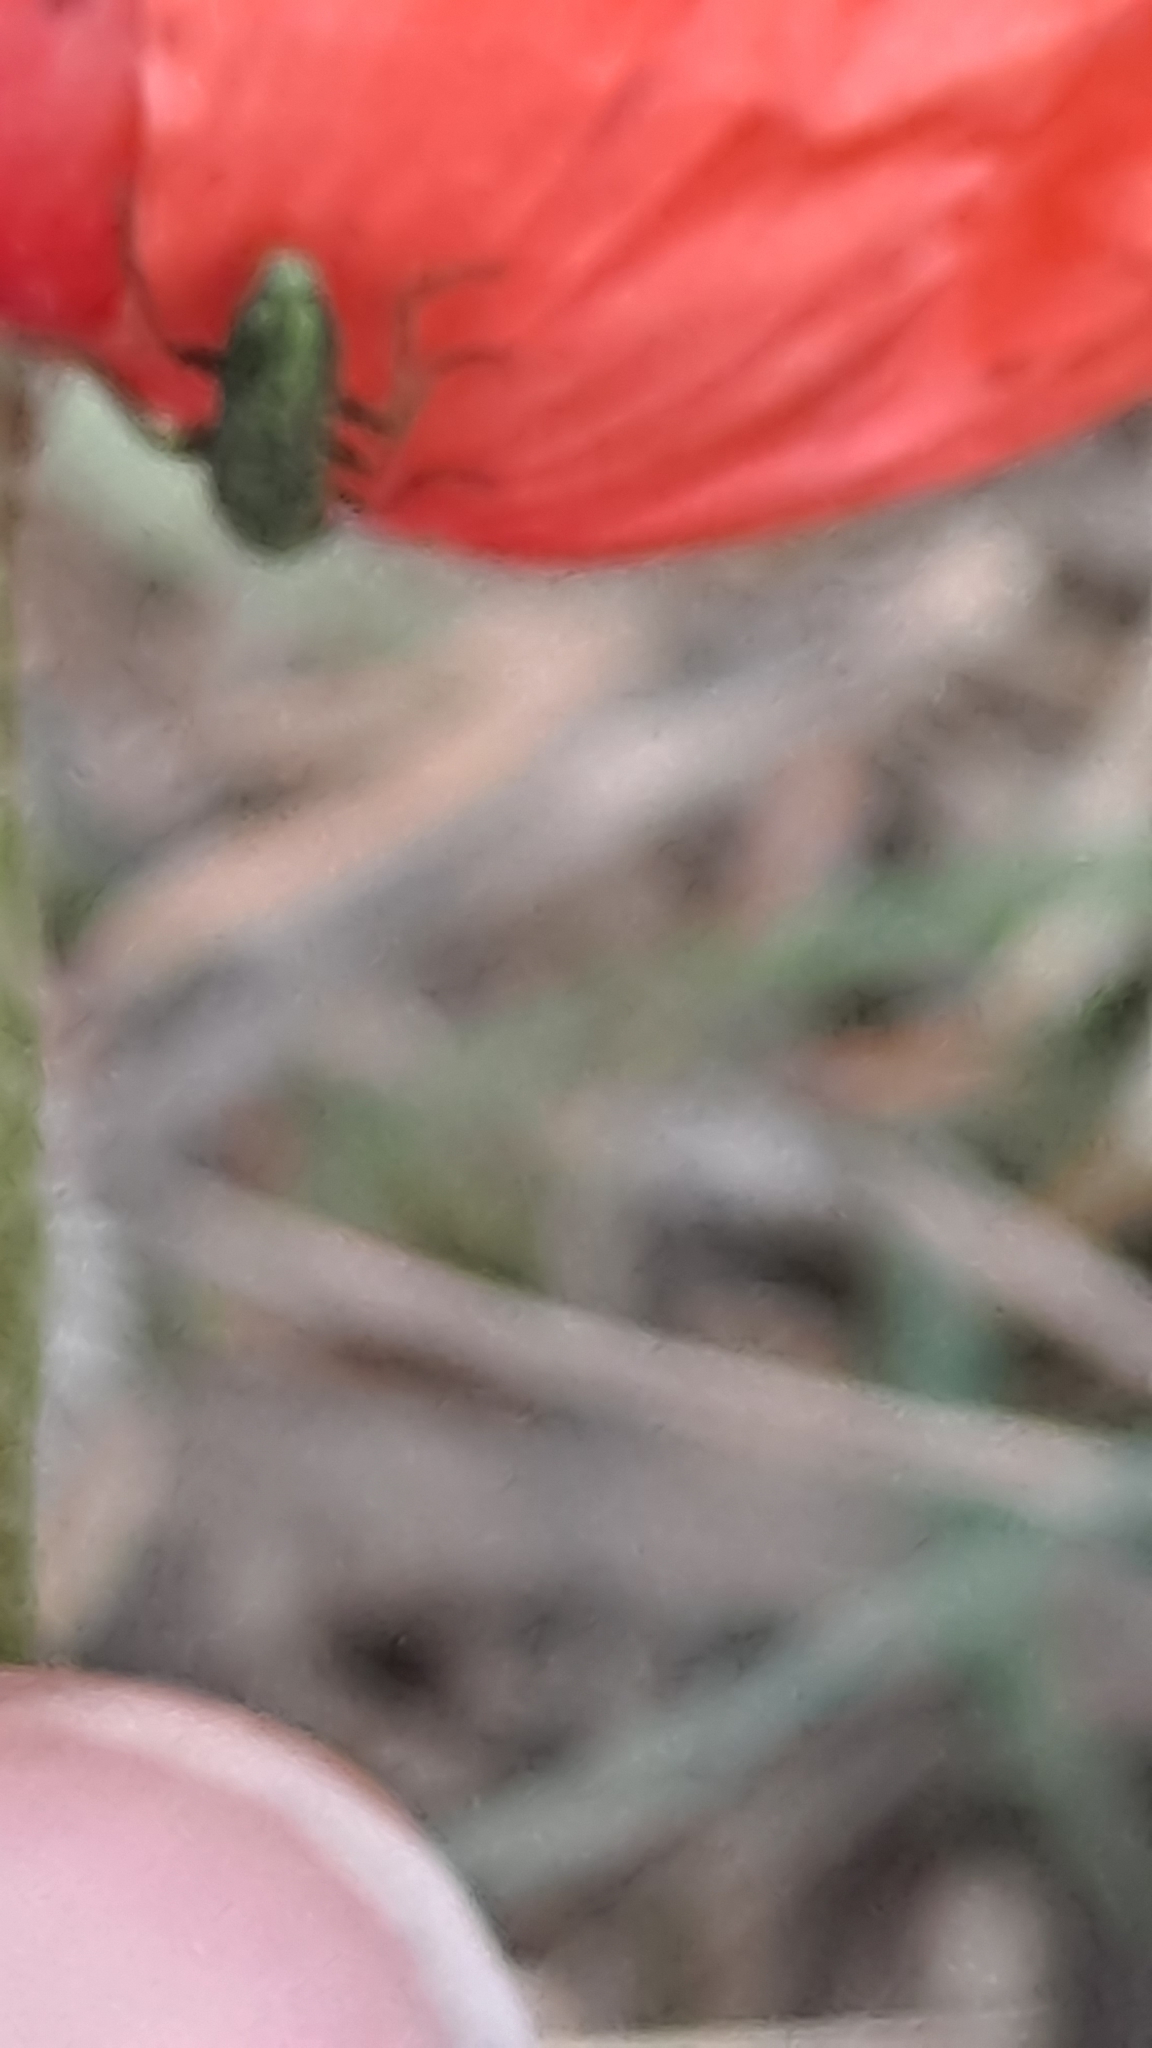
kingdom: Plantae
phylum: Tracheophyta
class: Magnoliopsida
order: Ranunculales
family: Papaveraceae
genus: Papaver
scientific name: Papaver rhoeas
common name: Corn poppy
